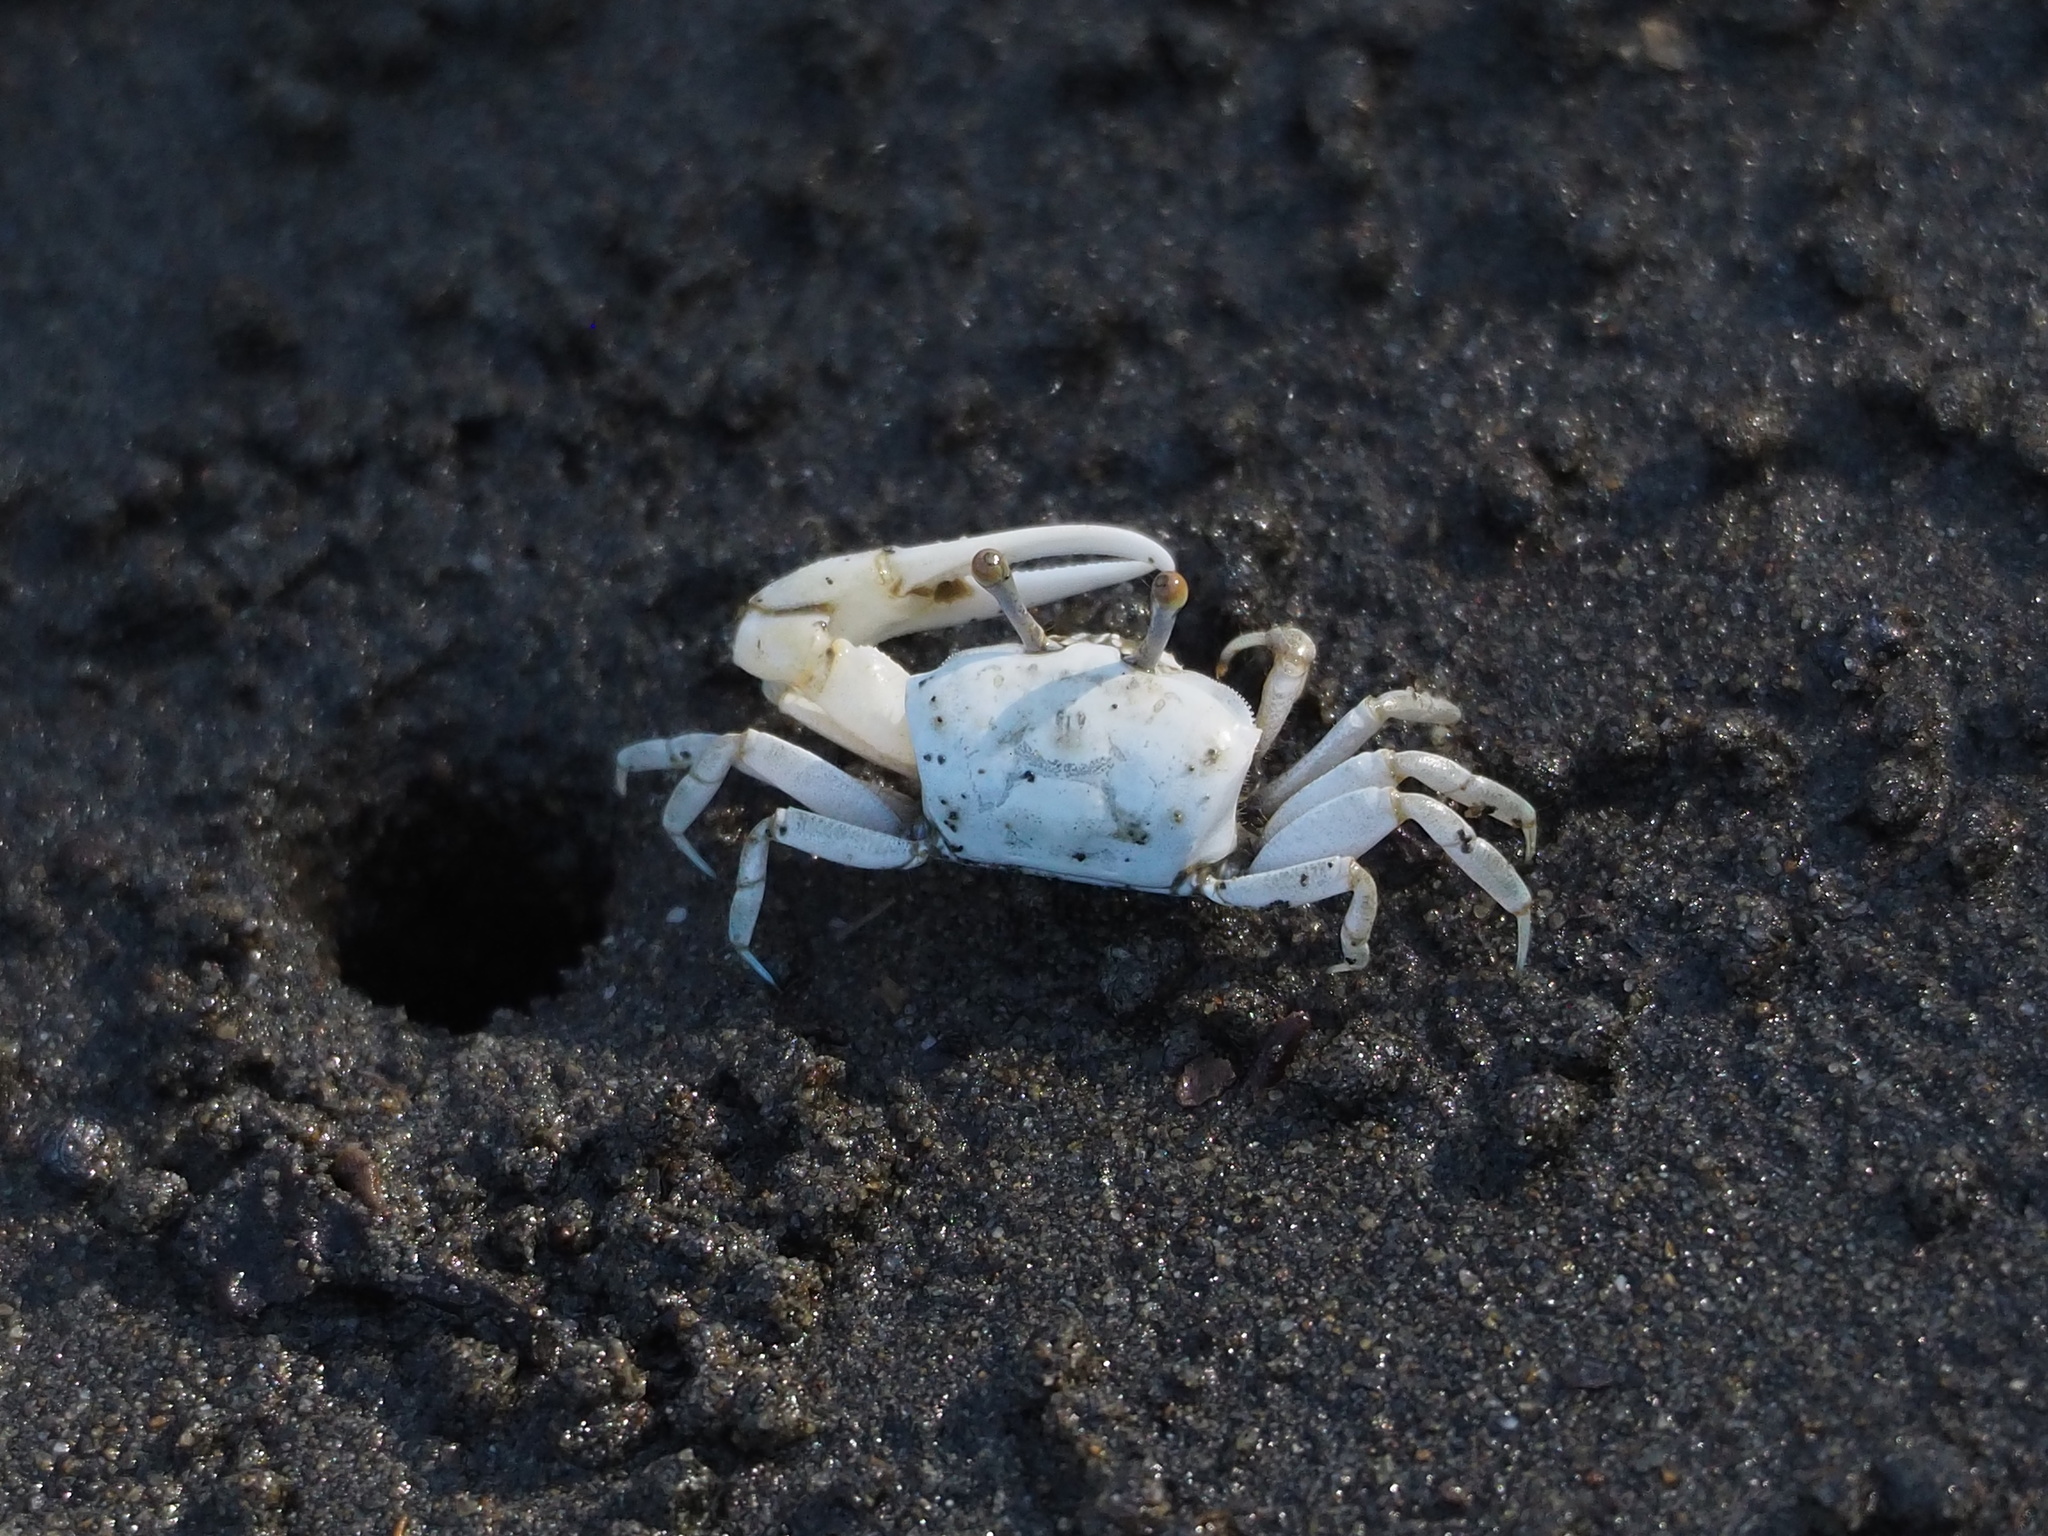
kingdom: Animalia
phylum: Arthropoda
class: Malacostraca
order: Decapoda
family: Ocypodidae
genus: Austruca
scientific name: Austruca lactea
